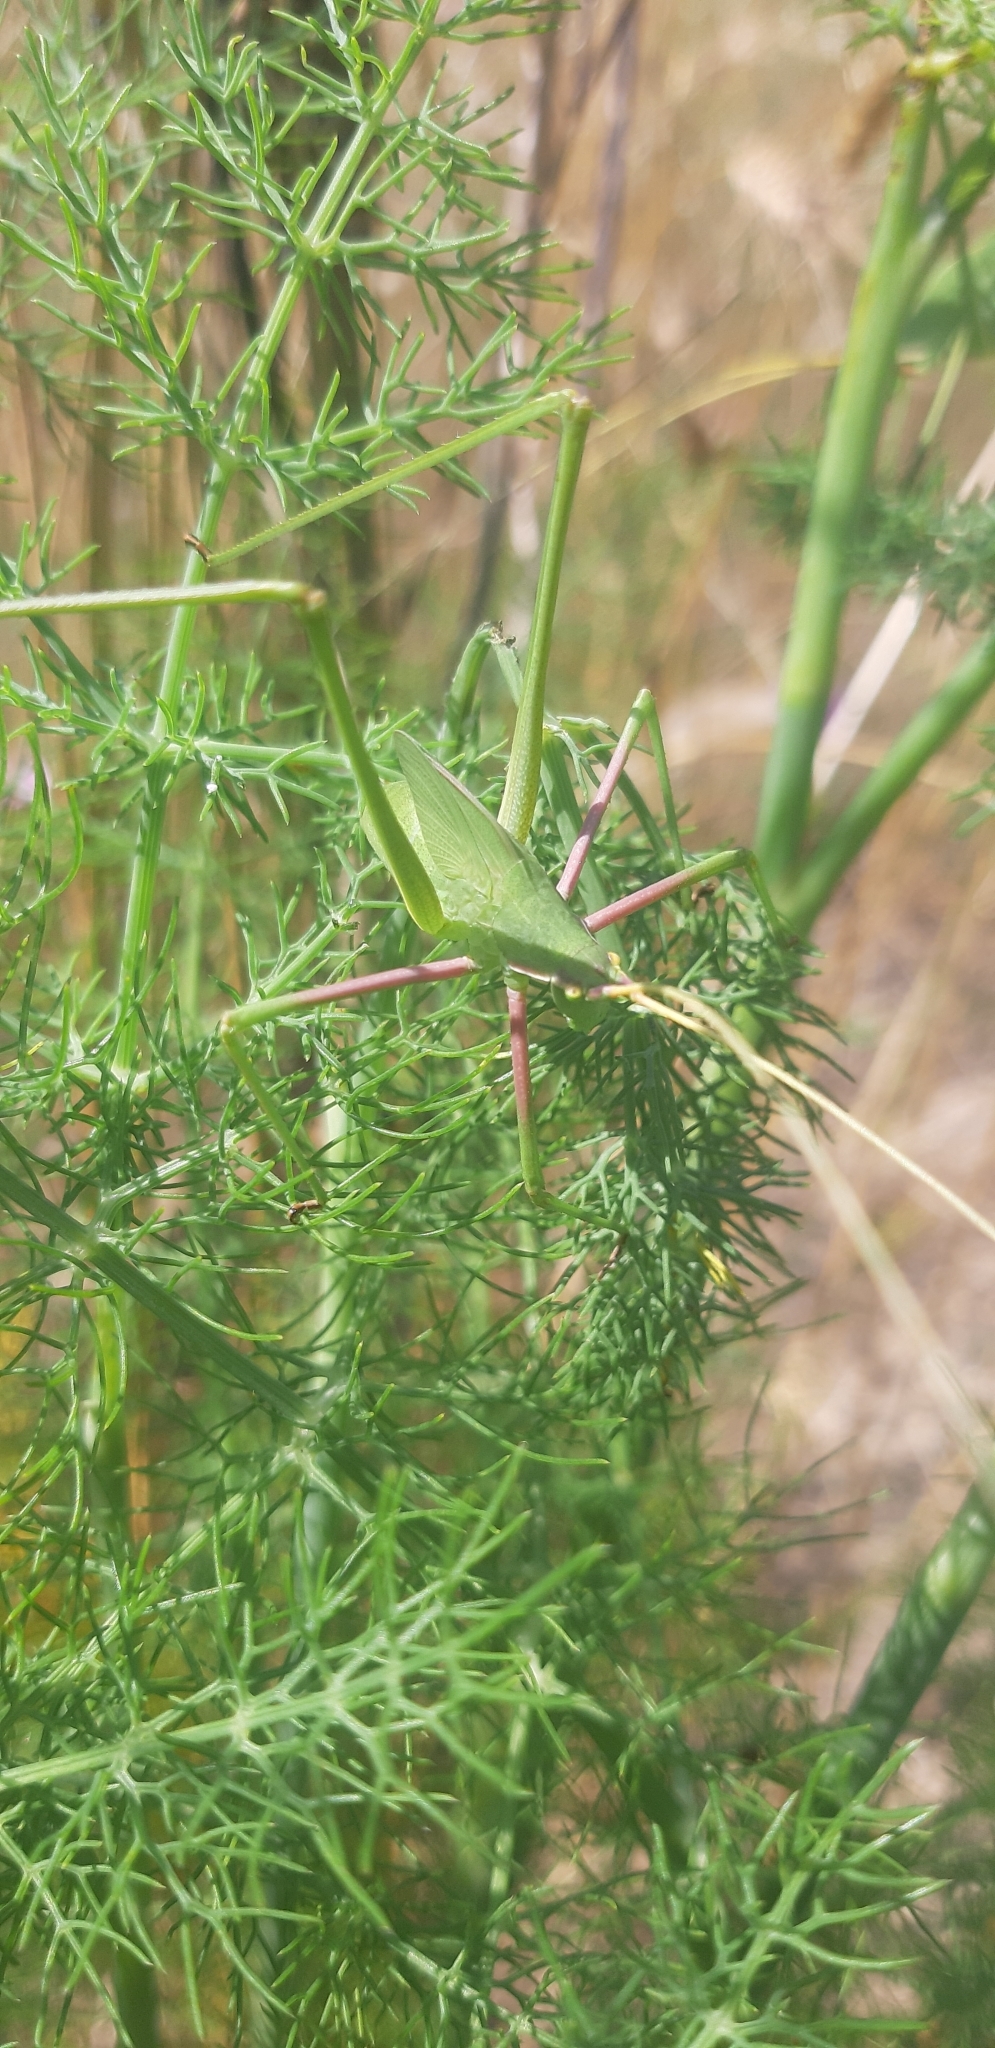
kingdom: Animalia
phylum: Arthropoda
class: Insecta
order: Orthoptera
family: Tettigoniidae
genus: Acrometopa
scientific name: Acrometopa italica
